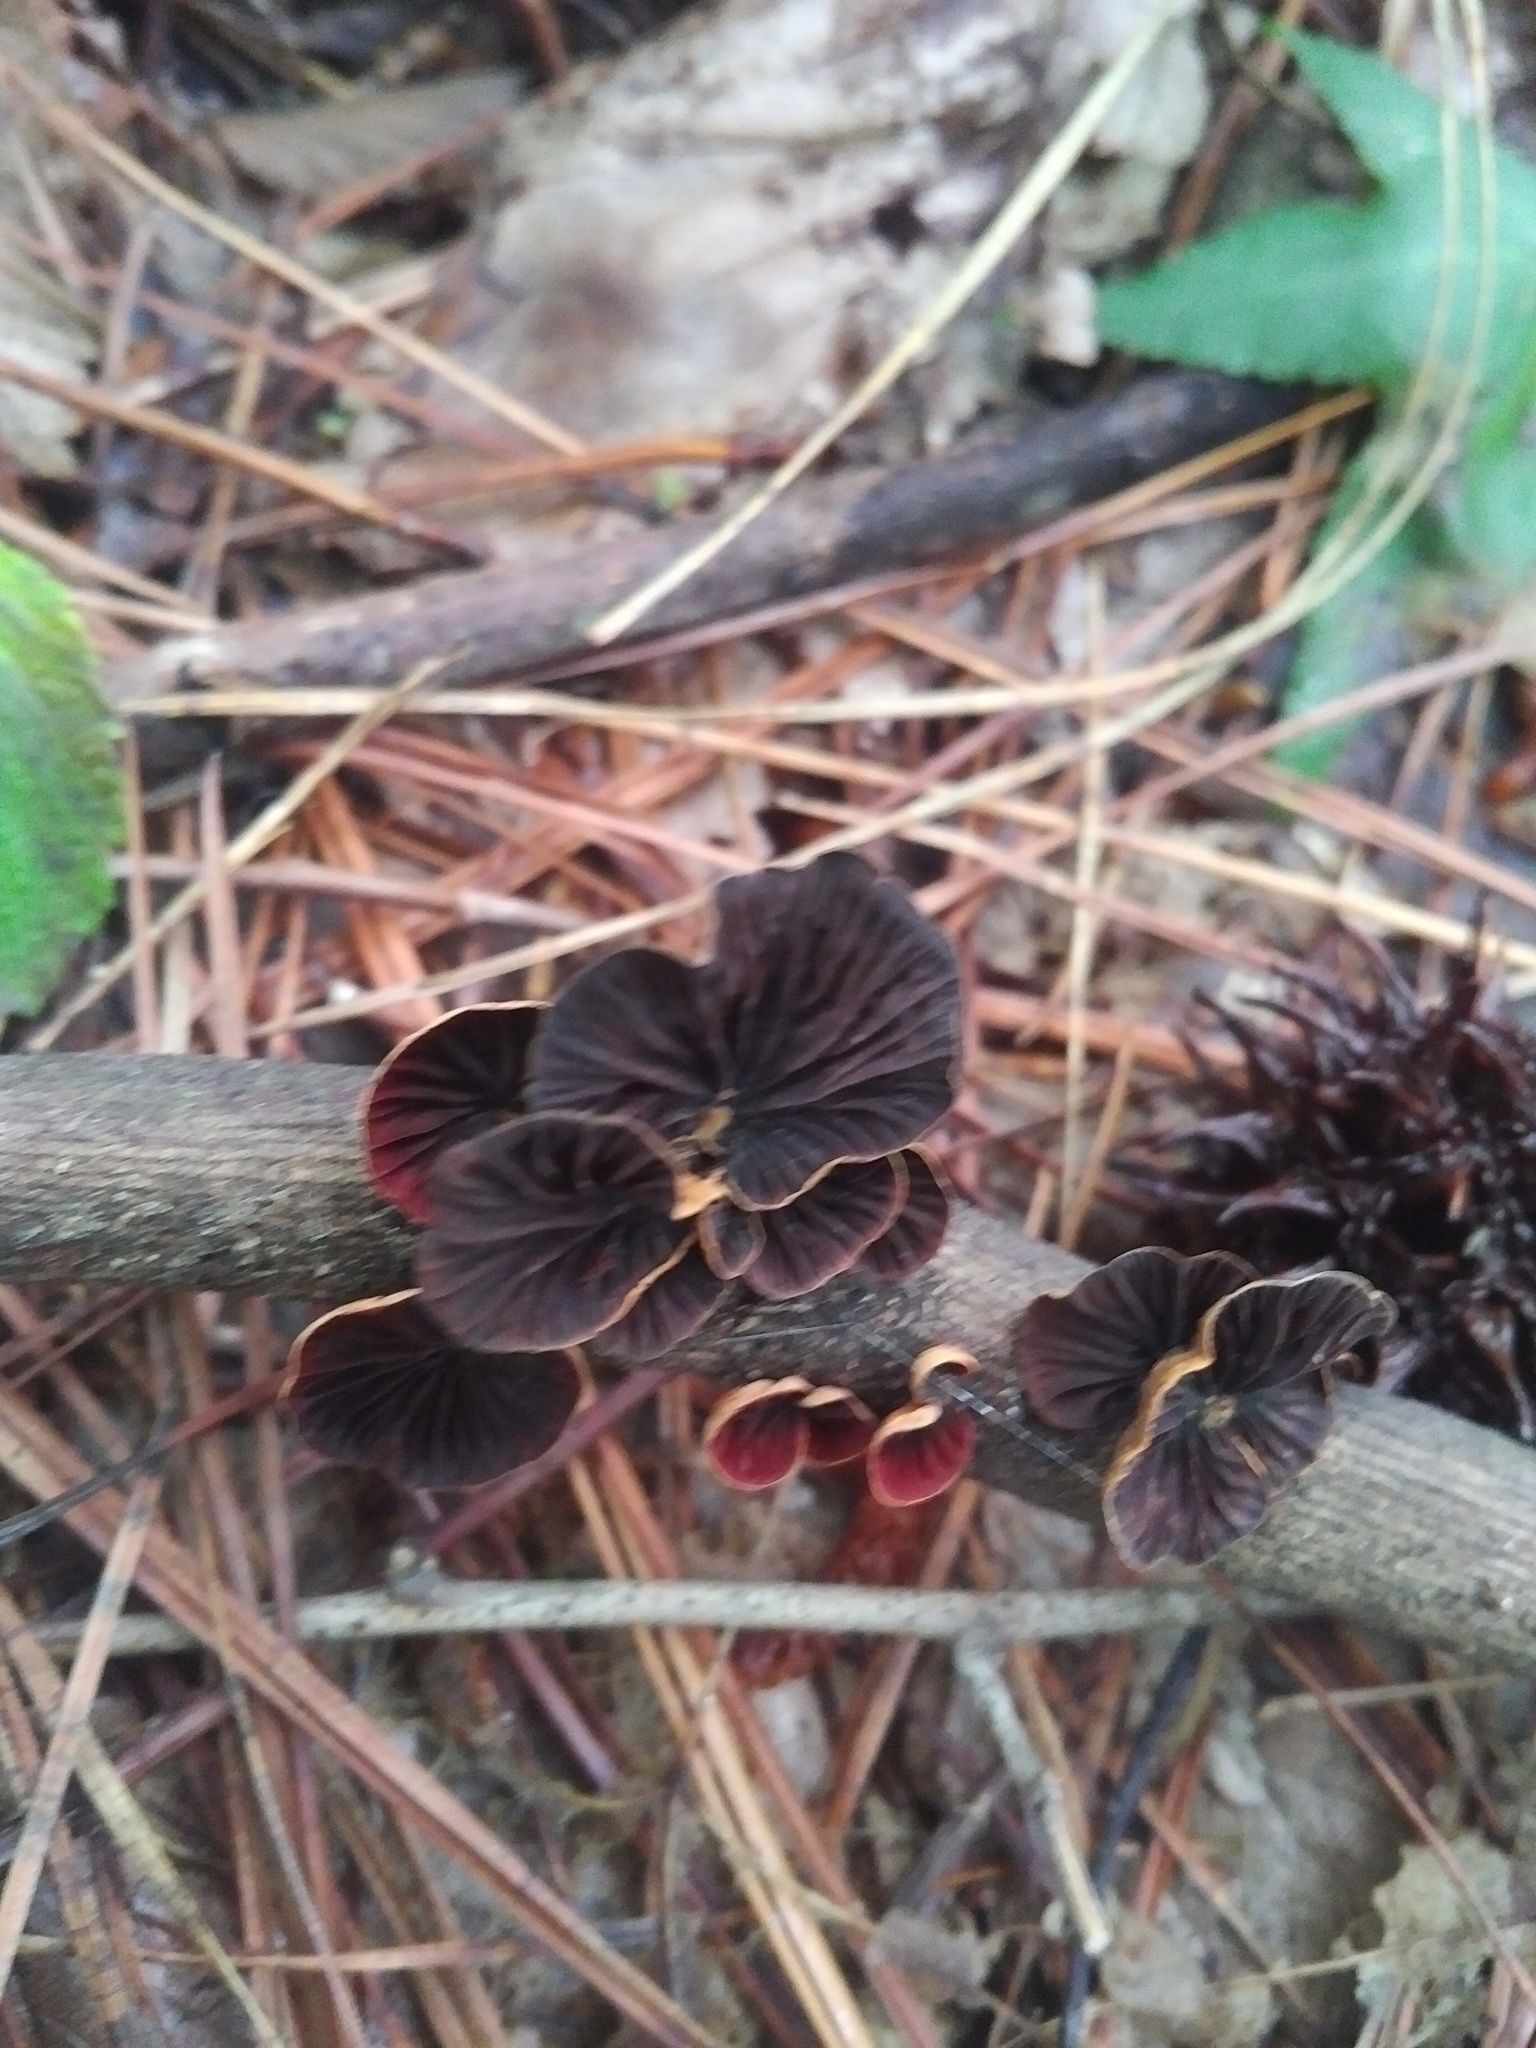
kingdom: Fungi
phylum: Basidiomycota
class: Agaricomycetes
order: Agaricales
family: Omphalotaceae
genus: Anthracophyllum
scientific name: Anthracophyllum lateritium
